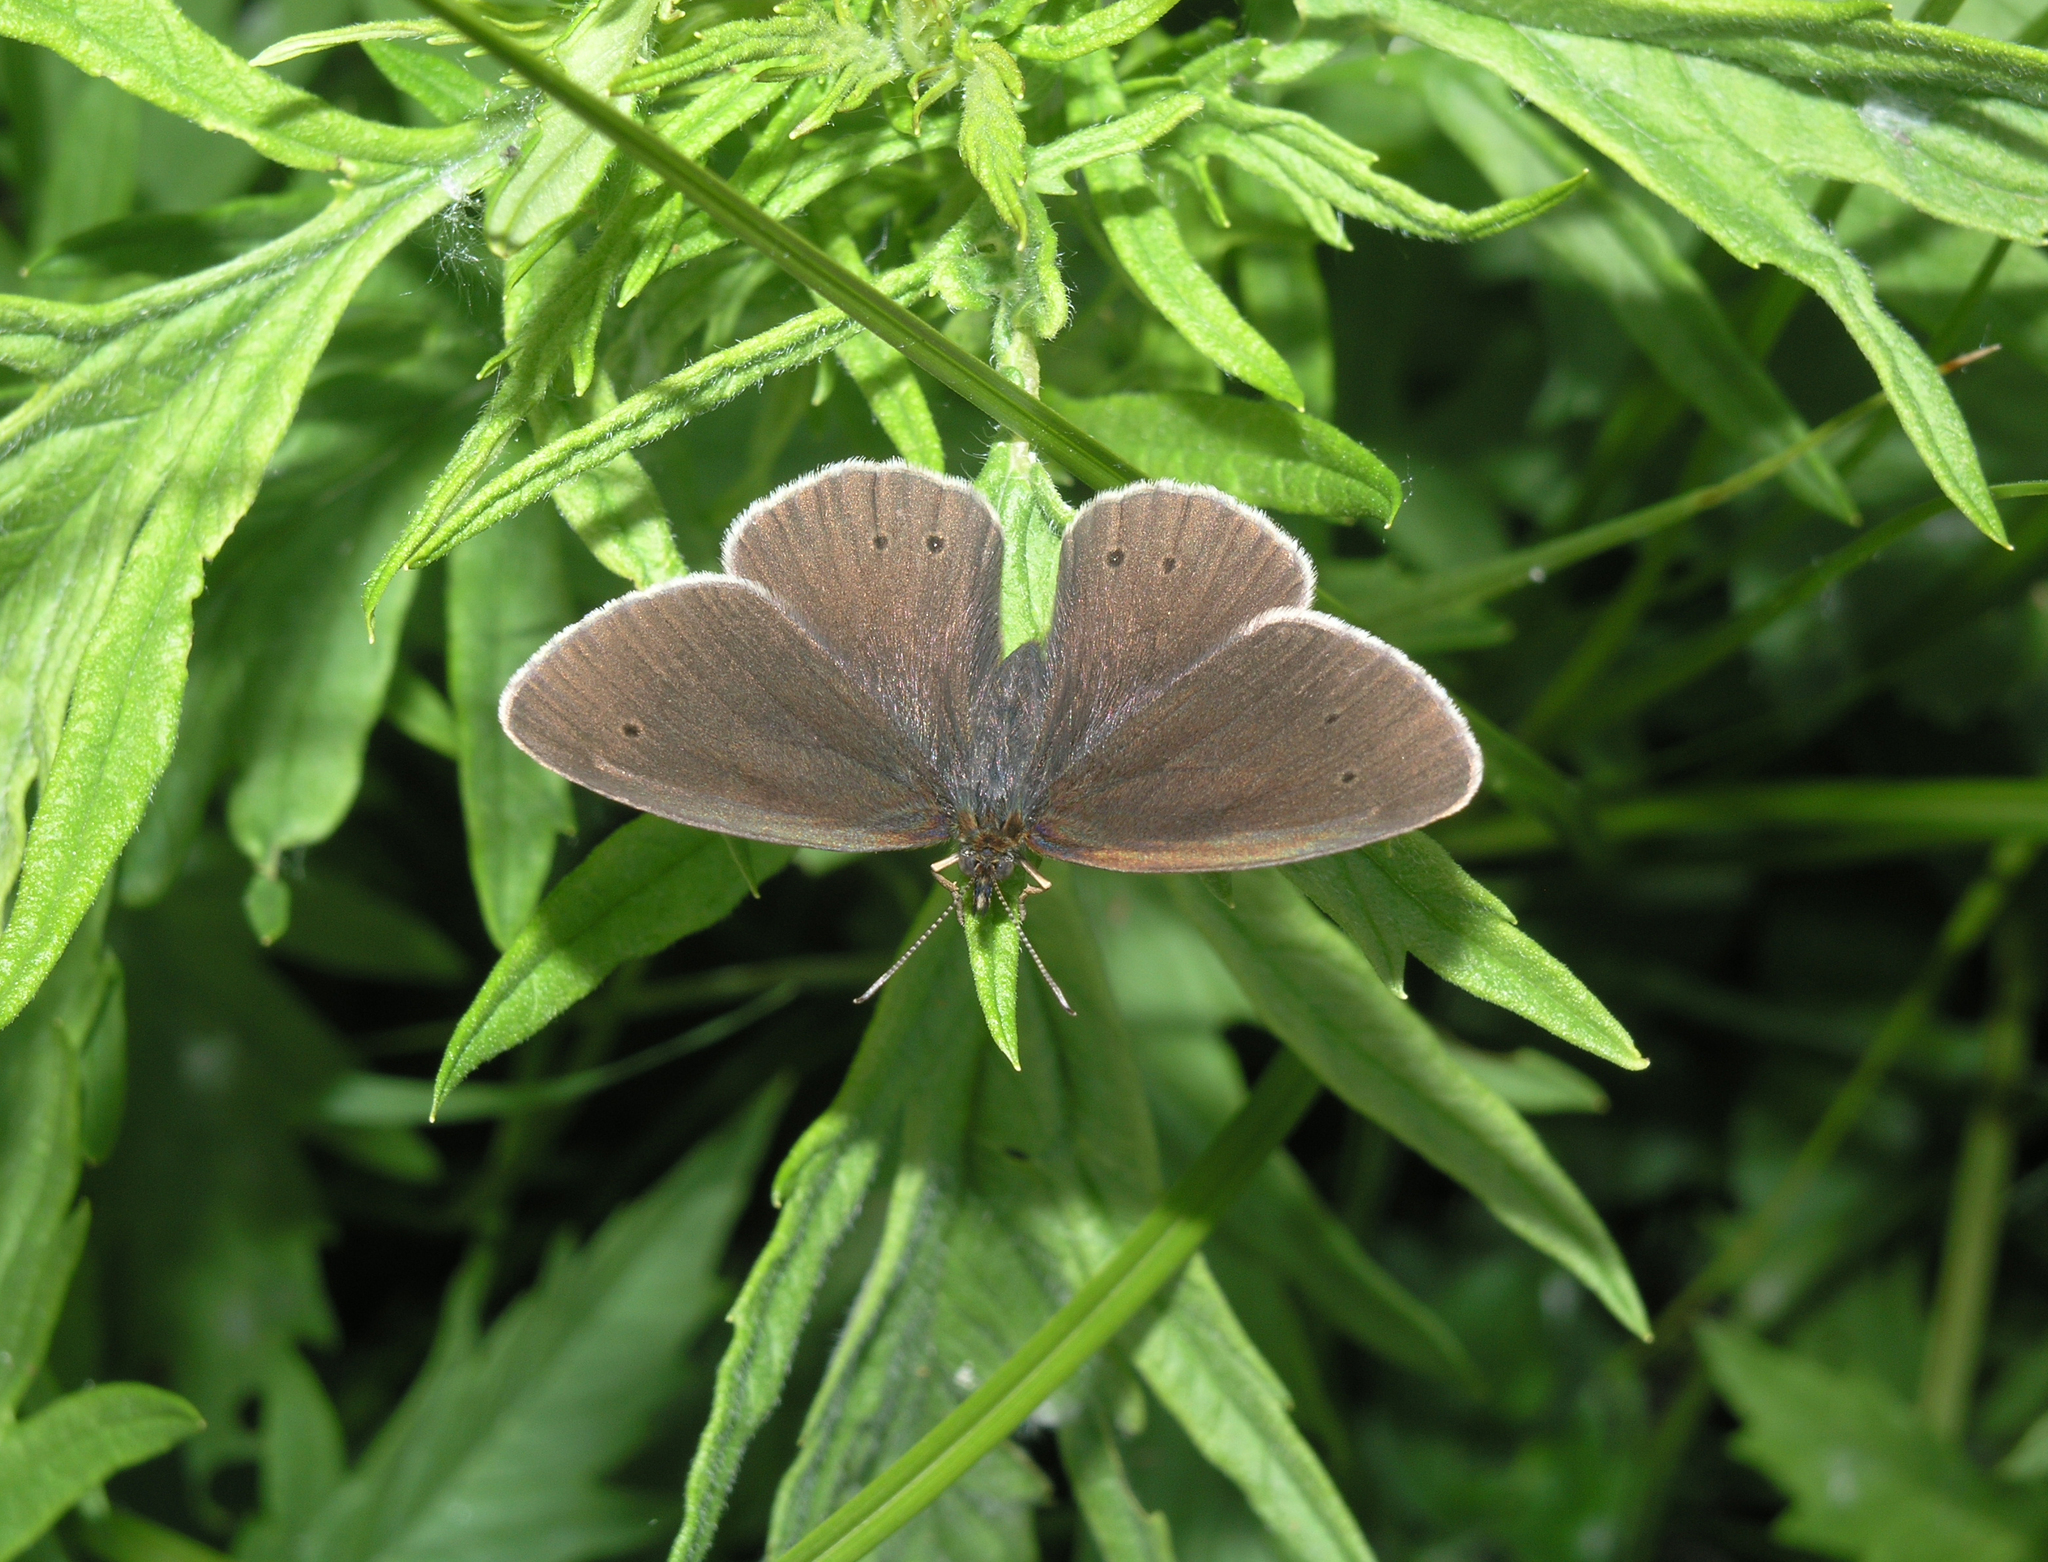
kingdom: Animalia
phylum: Arthropoda
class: Insecta
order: Lepidoptera
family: Nymphalidae
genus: Aphantopus
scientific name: Aphantopus hyperantus
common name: Ringlet
